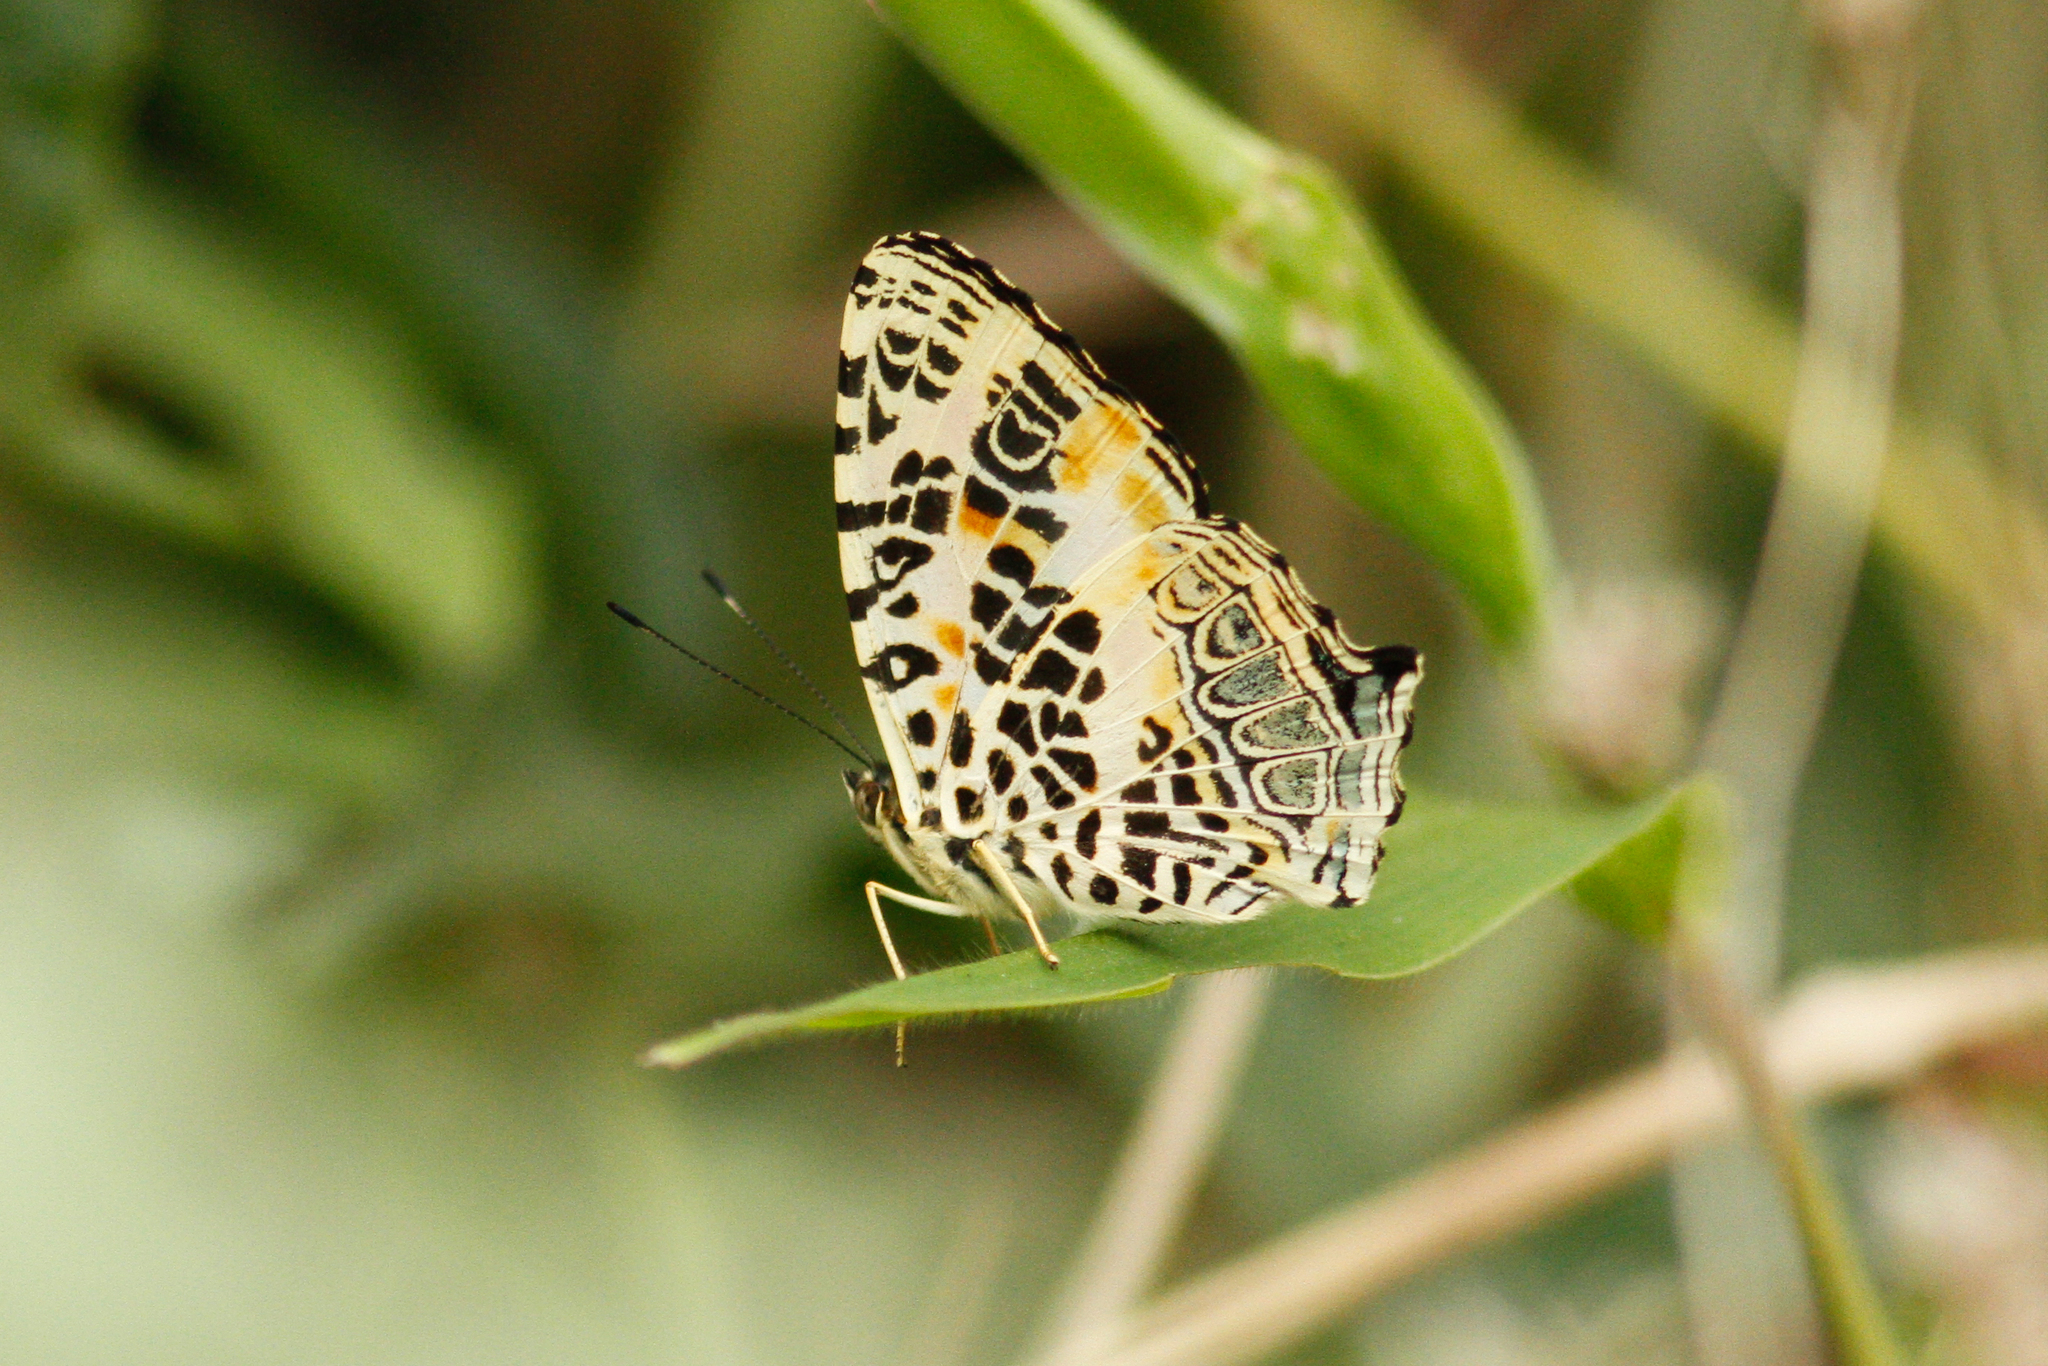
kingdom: Animalia
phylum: Arthropoda
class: Insecta
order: Lepidoptera
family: Nymphalidae
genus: Symbrenthia
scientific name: Symbrenthia hypselis
